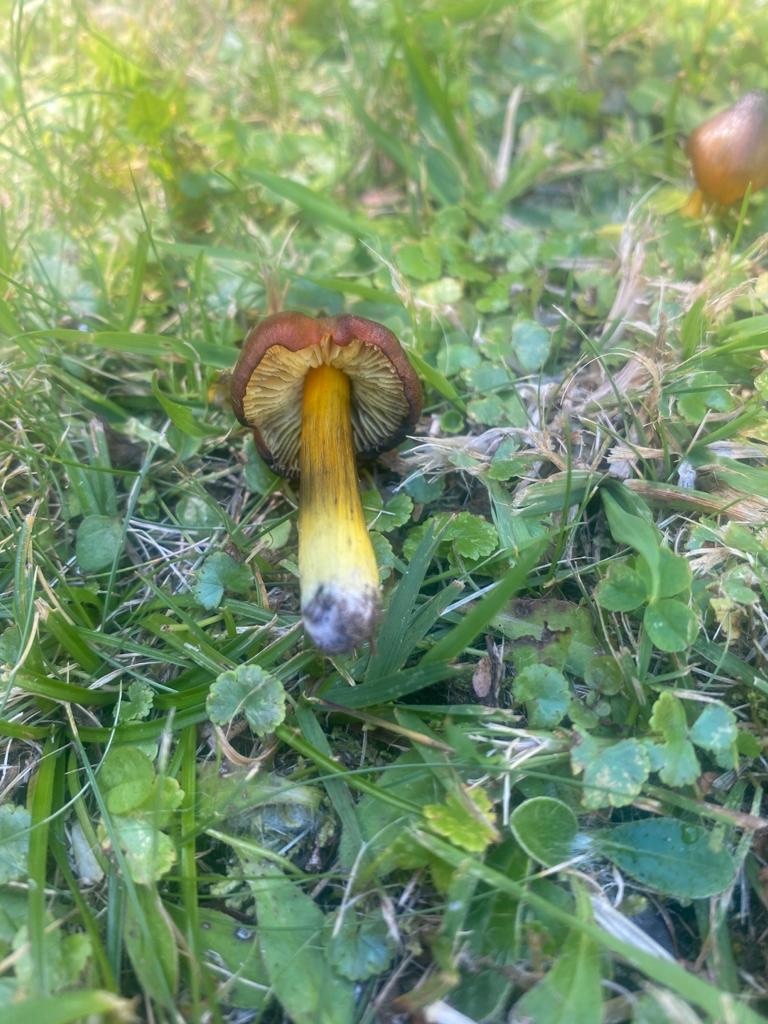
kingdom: Fungi
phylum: Basidiomycota
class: Agaricomycetes
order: Agaricales
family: Hygrophoraceae
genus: Hygrocybe
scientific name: Hygrocybe conica
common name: Blackening wax-cap
